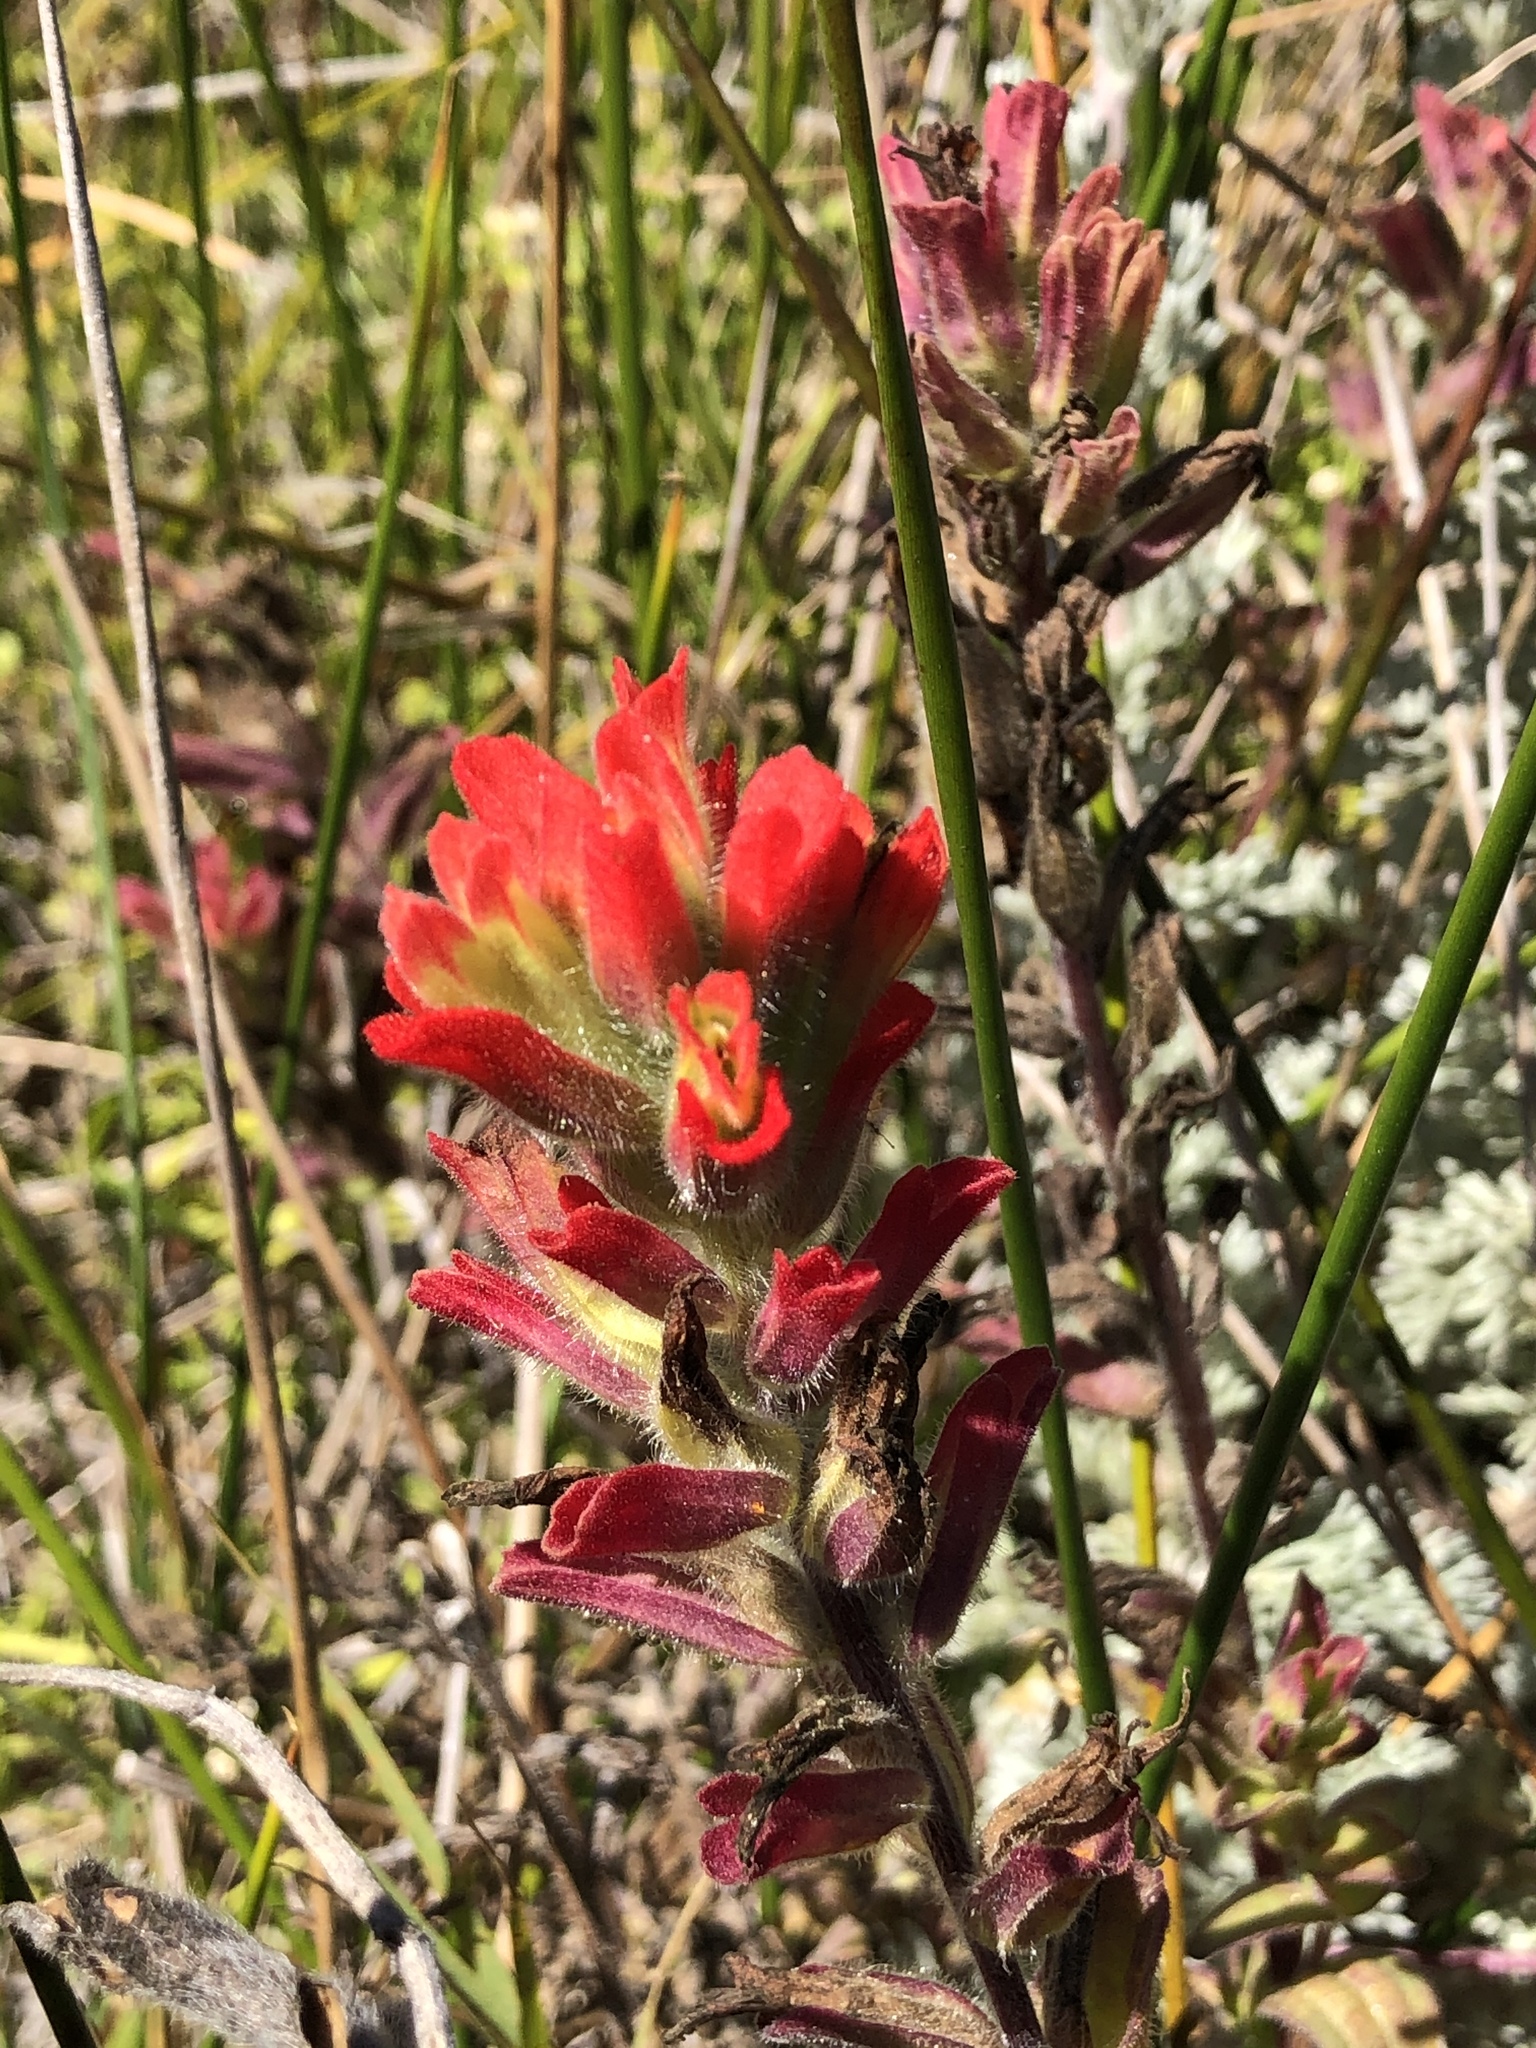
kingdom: Plantae
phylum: Tracheophyta
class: Magnoliopsida
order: Lamiales
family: Orobanchaceae
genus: Castilleja
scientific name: Castilleja affinis
